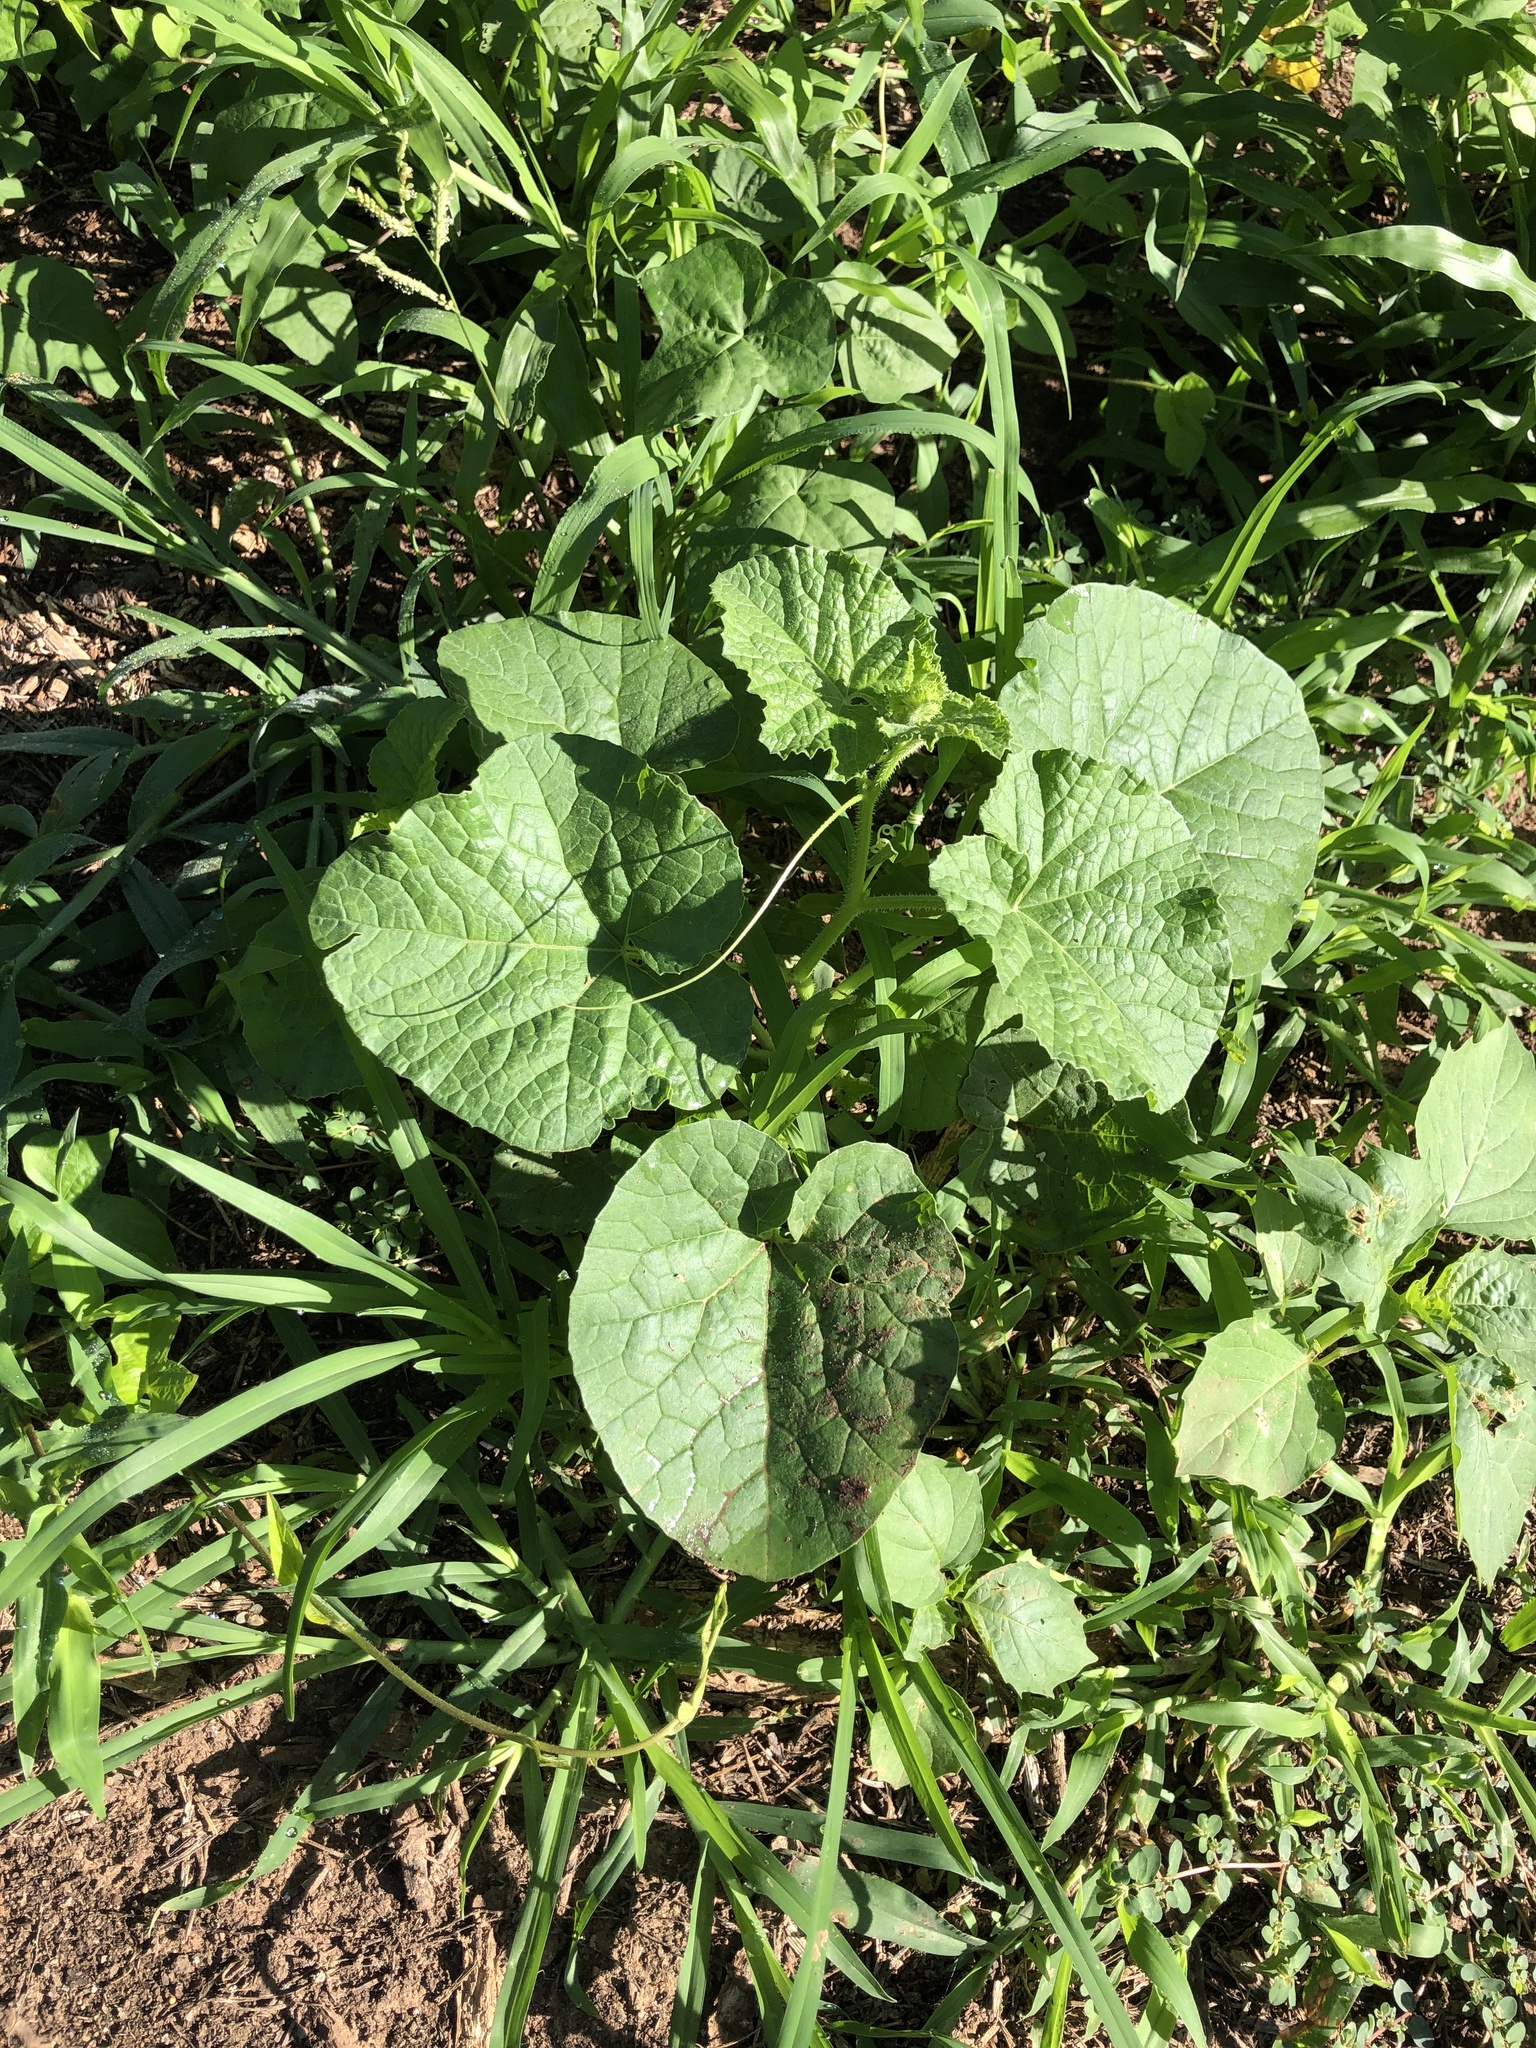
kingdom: Plantae
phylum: Tracheophyta
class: Magnoliopsida
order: Cucurbitales
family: Cucurbitaceae
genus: Cucumis
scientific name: Cucumis melo
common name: Melon
